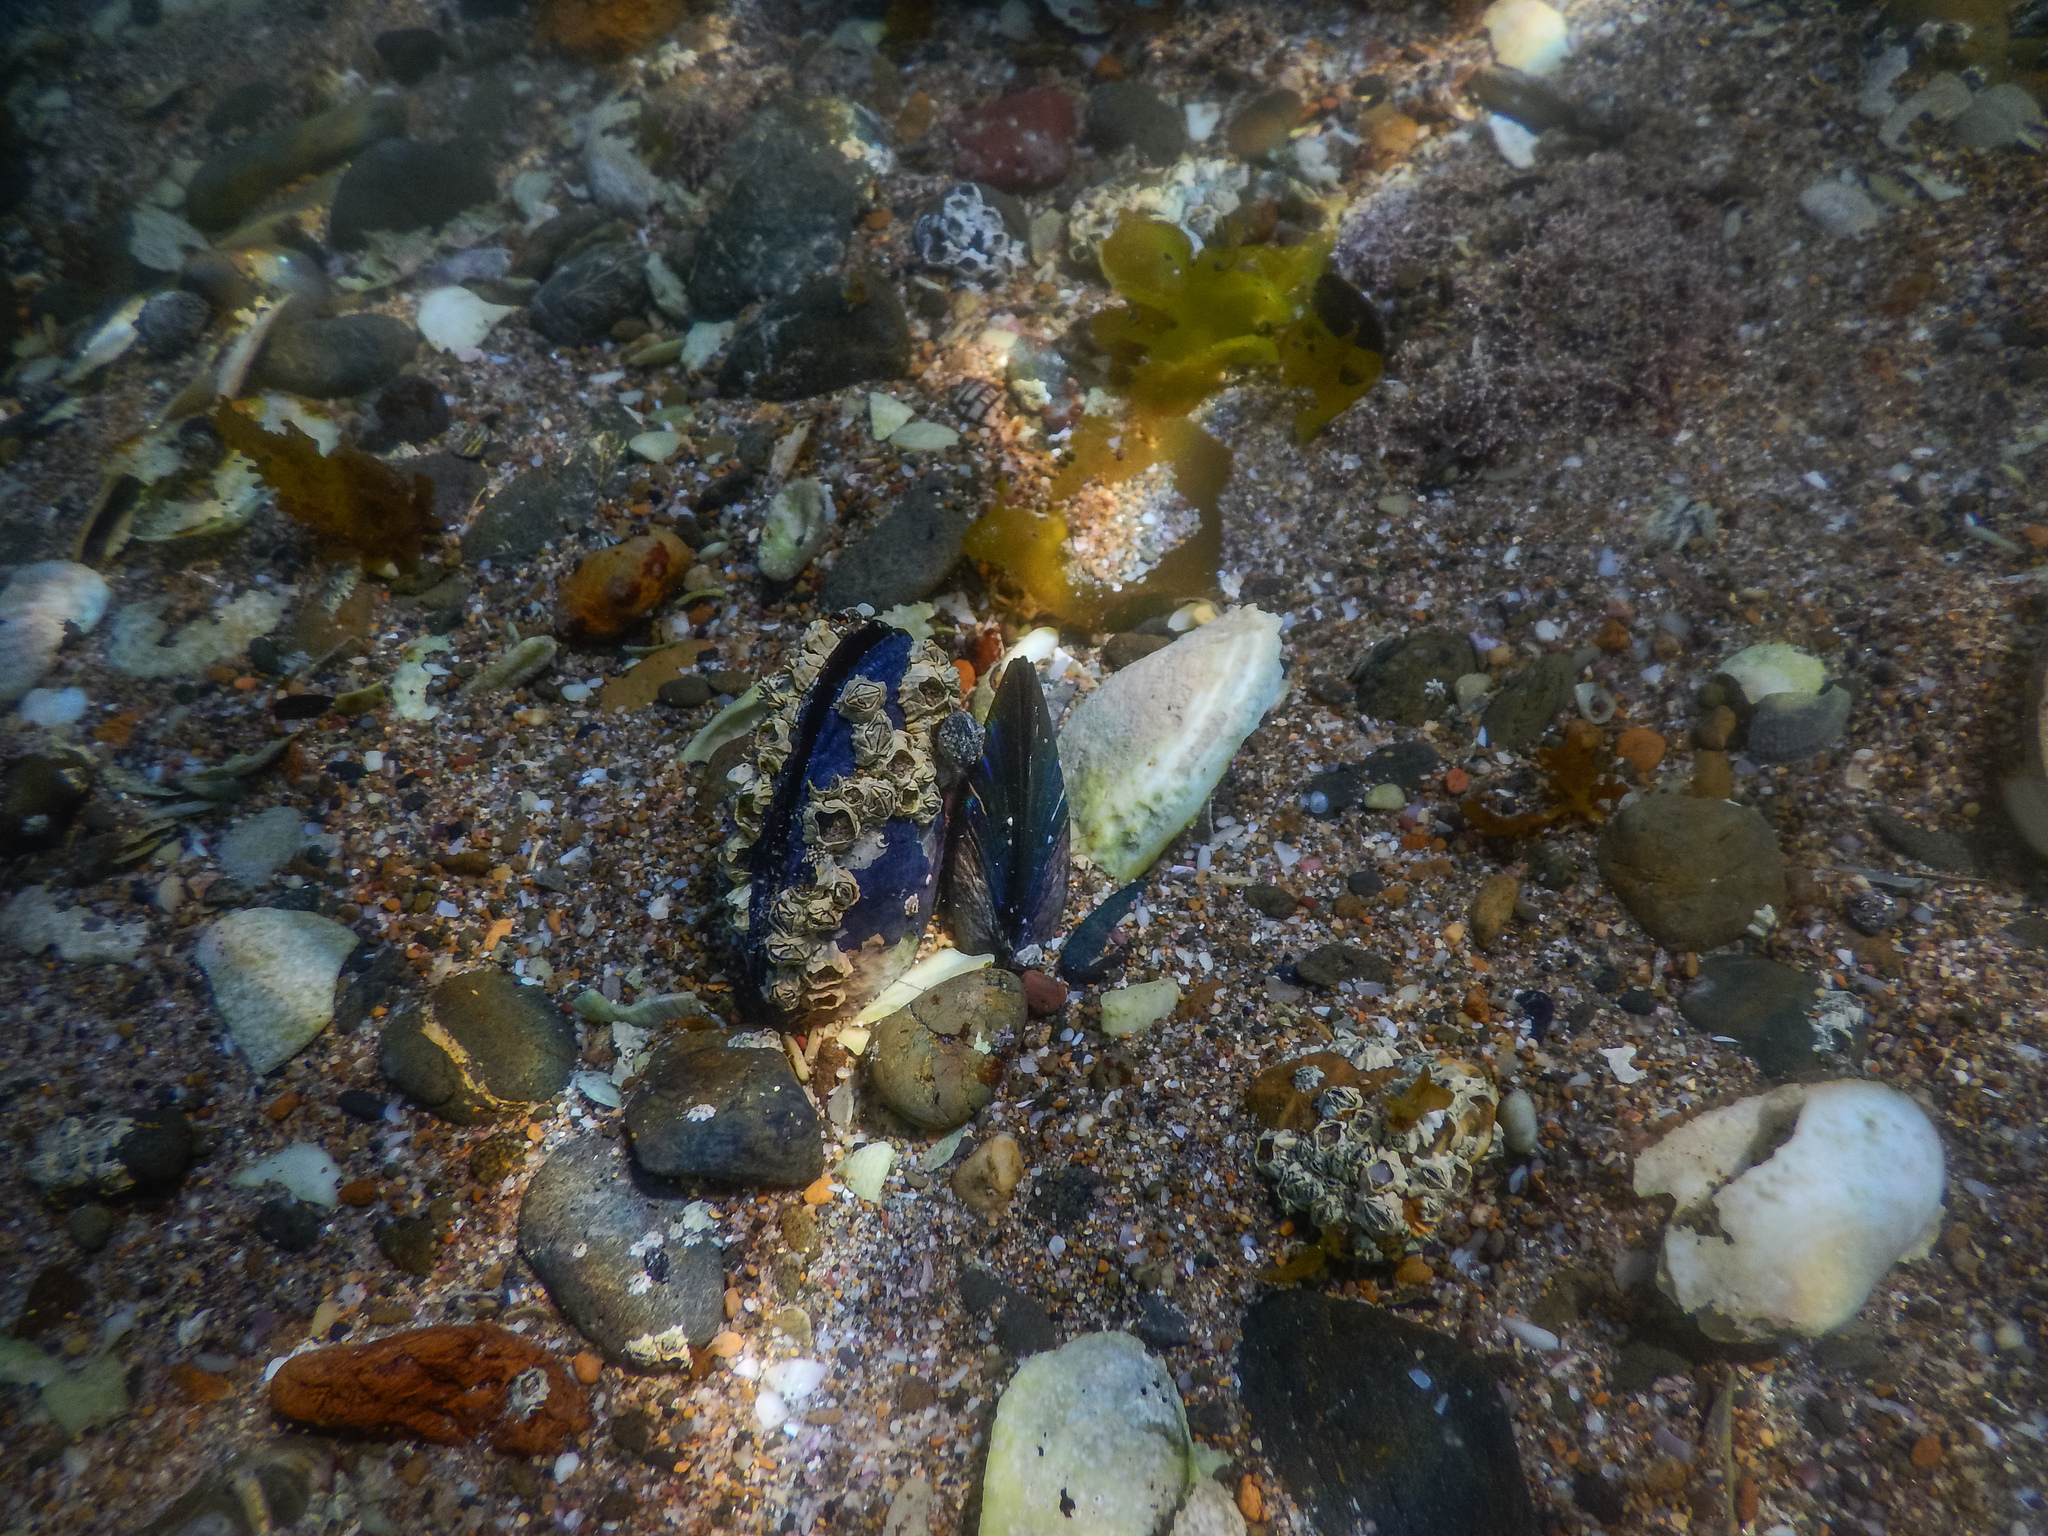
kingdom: Animalia
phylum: Mollusca
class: Bivalvia
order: Mytilida
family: Mytilidae
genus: Mytilus
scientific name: Mytilus planulatus
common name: Australian mussel
